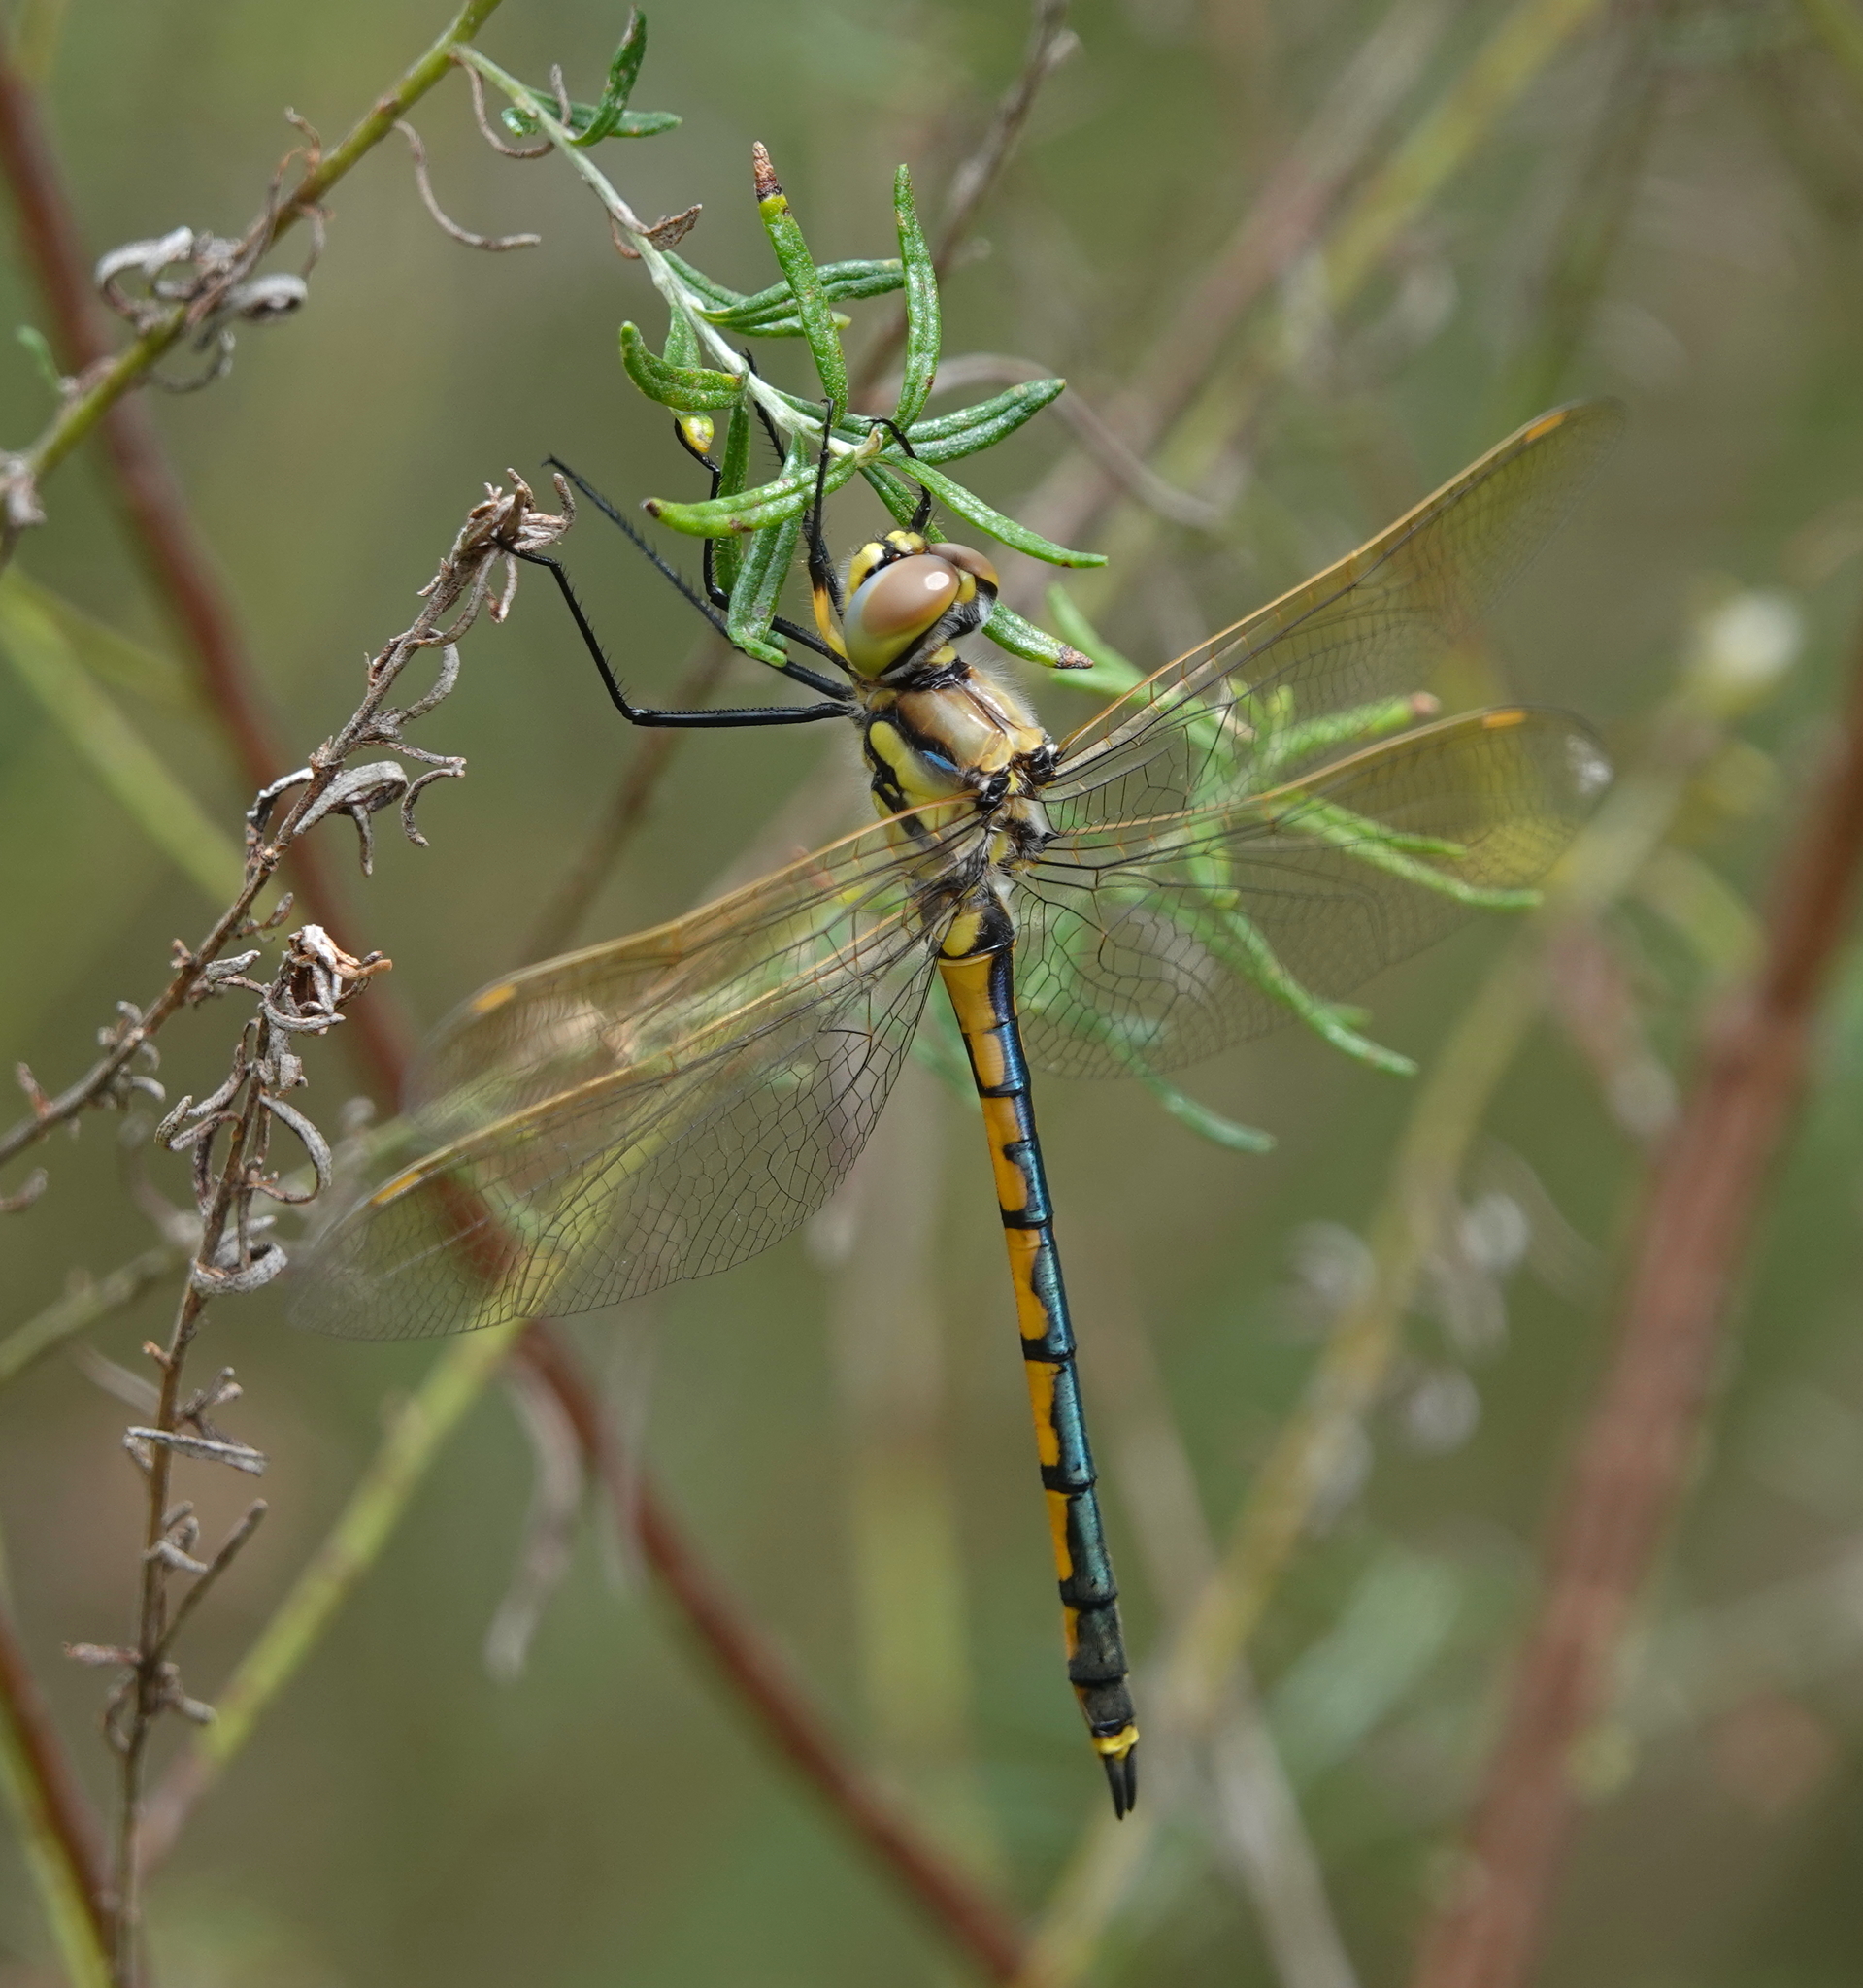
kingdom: Animalia
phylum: Arthropoda
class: Insecta
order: Odonata
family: Corduliidae
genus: Hemicordulia
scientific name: Hemicordulia tau
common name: Tau emerald
